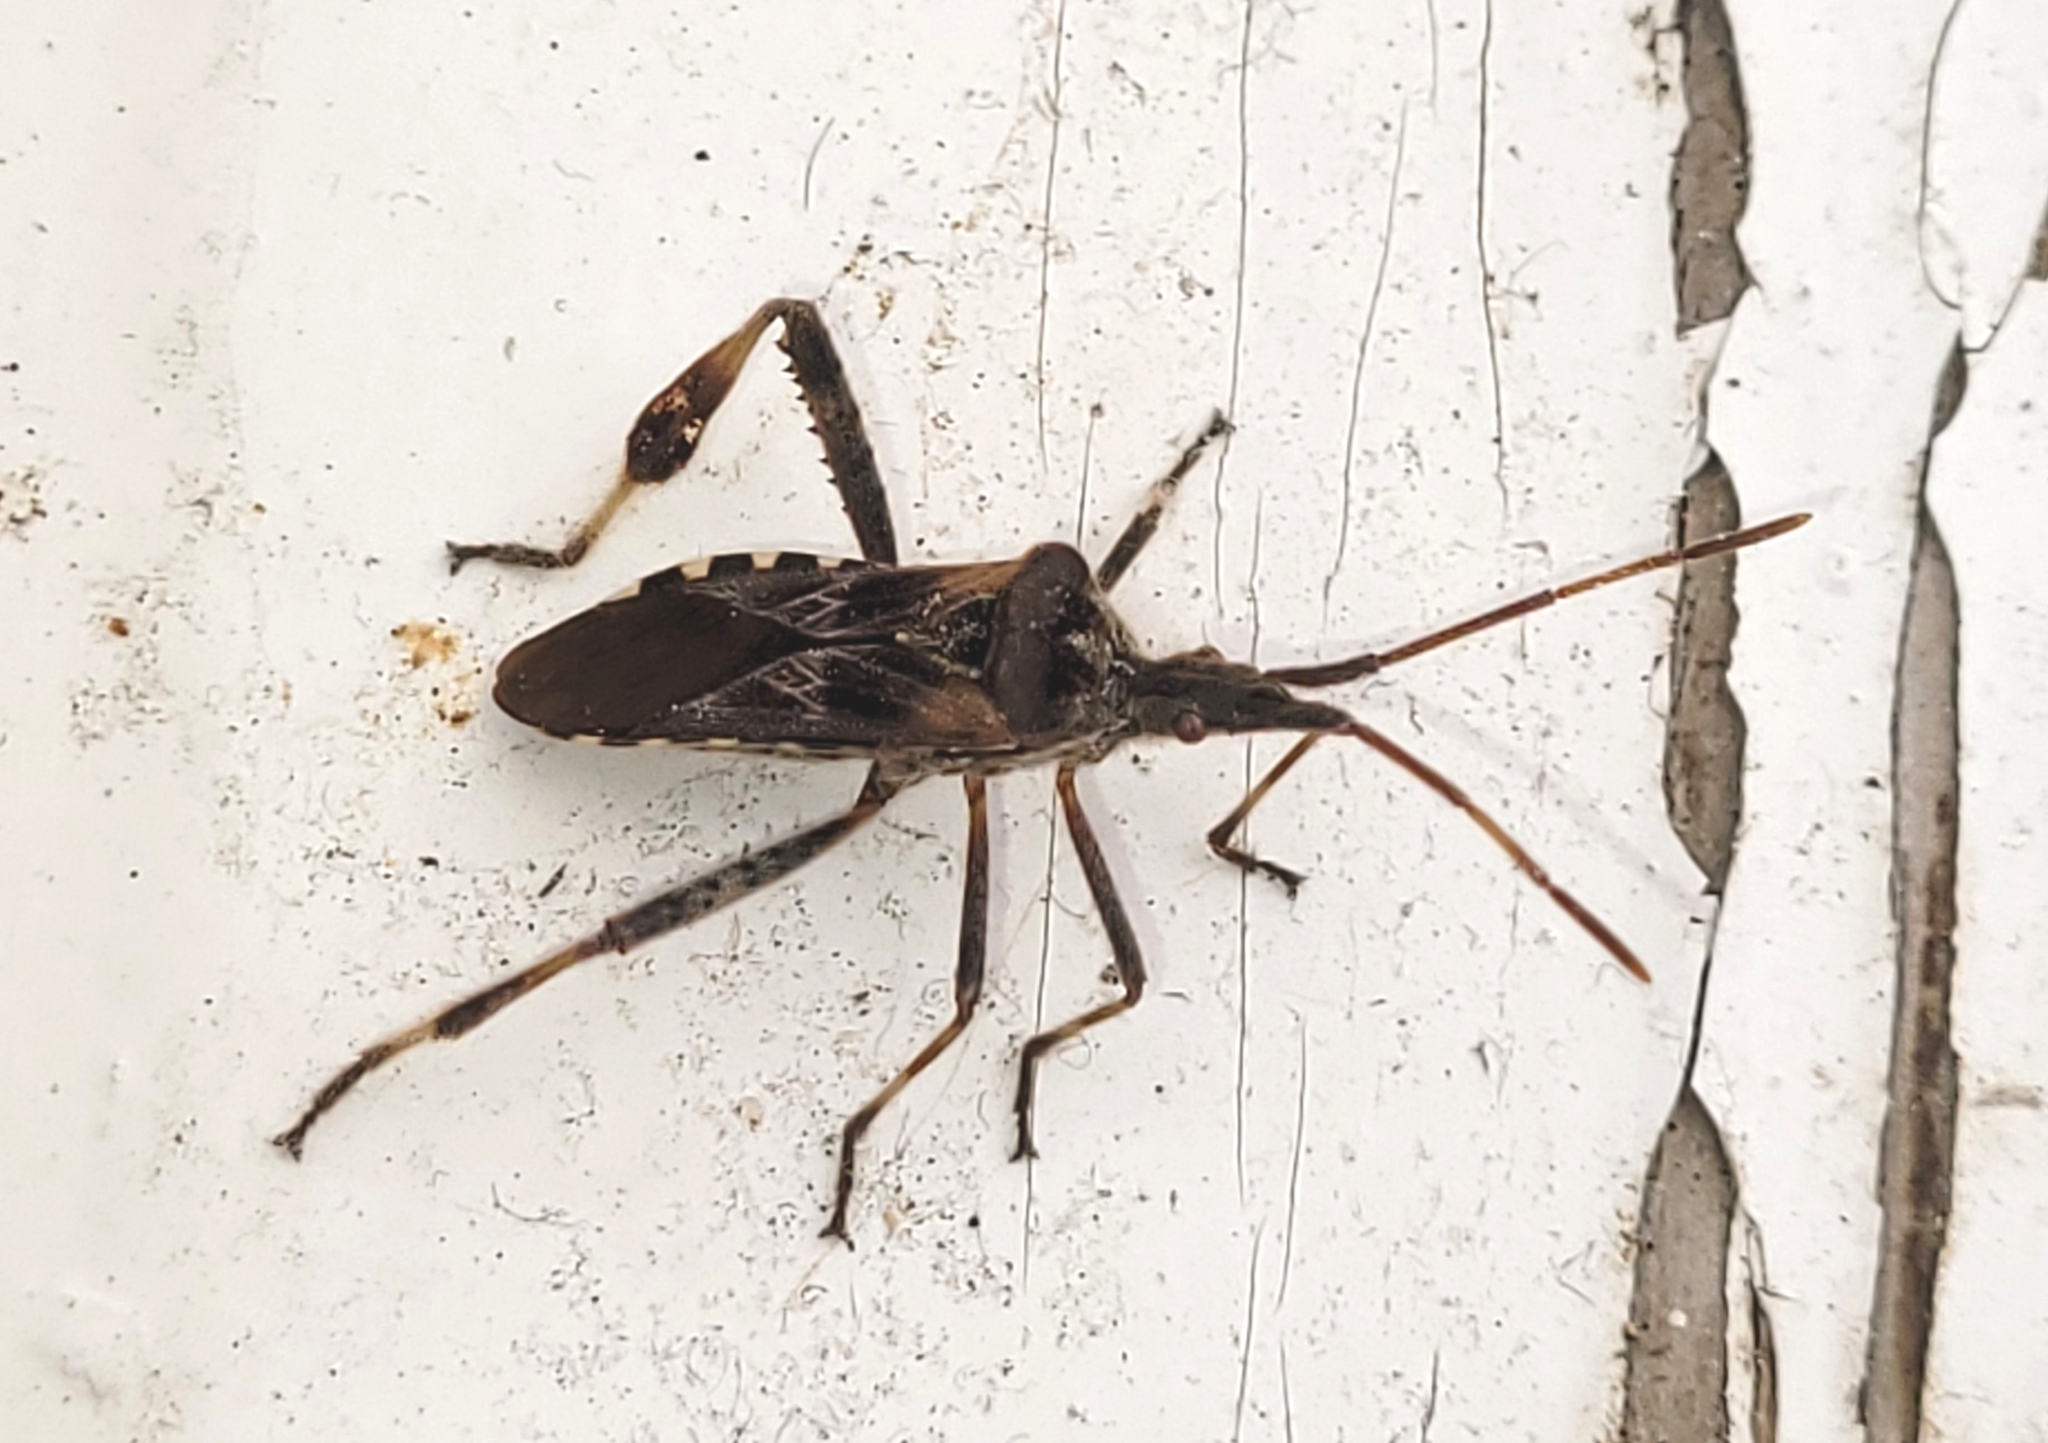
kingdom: Animalia
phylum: Arthropoda
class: Insecta
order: Hemiptera
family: Coreidae
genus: Leptoglossus
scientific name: Leptoglossus occidentalis
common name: Western conifer-seed bug
